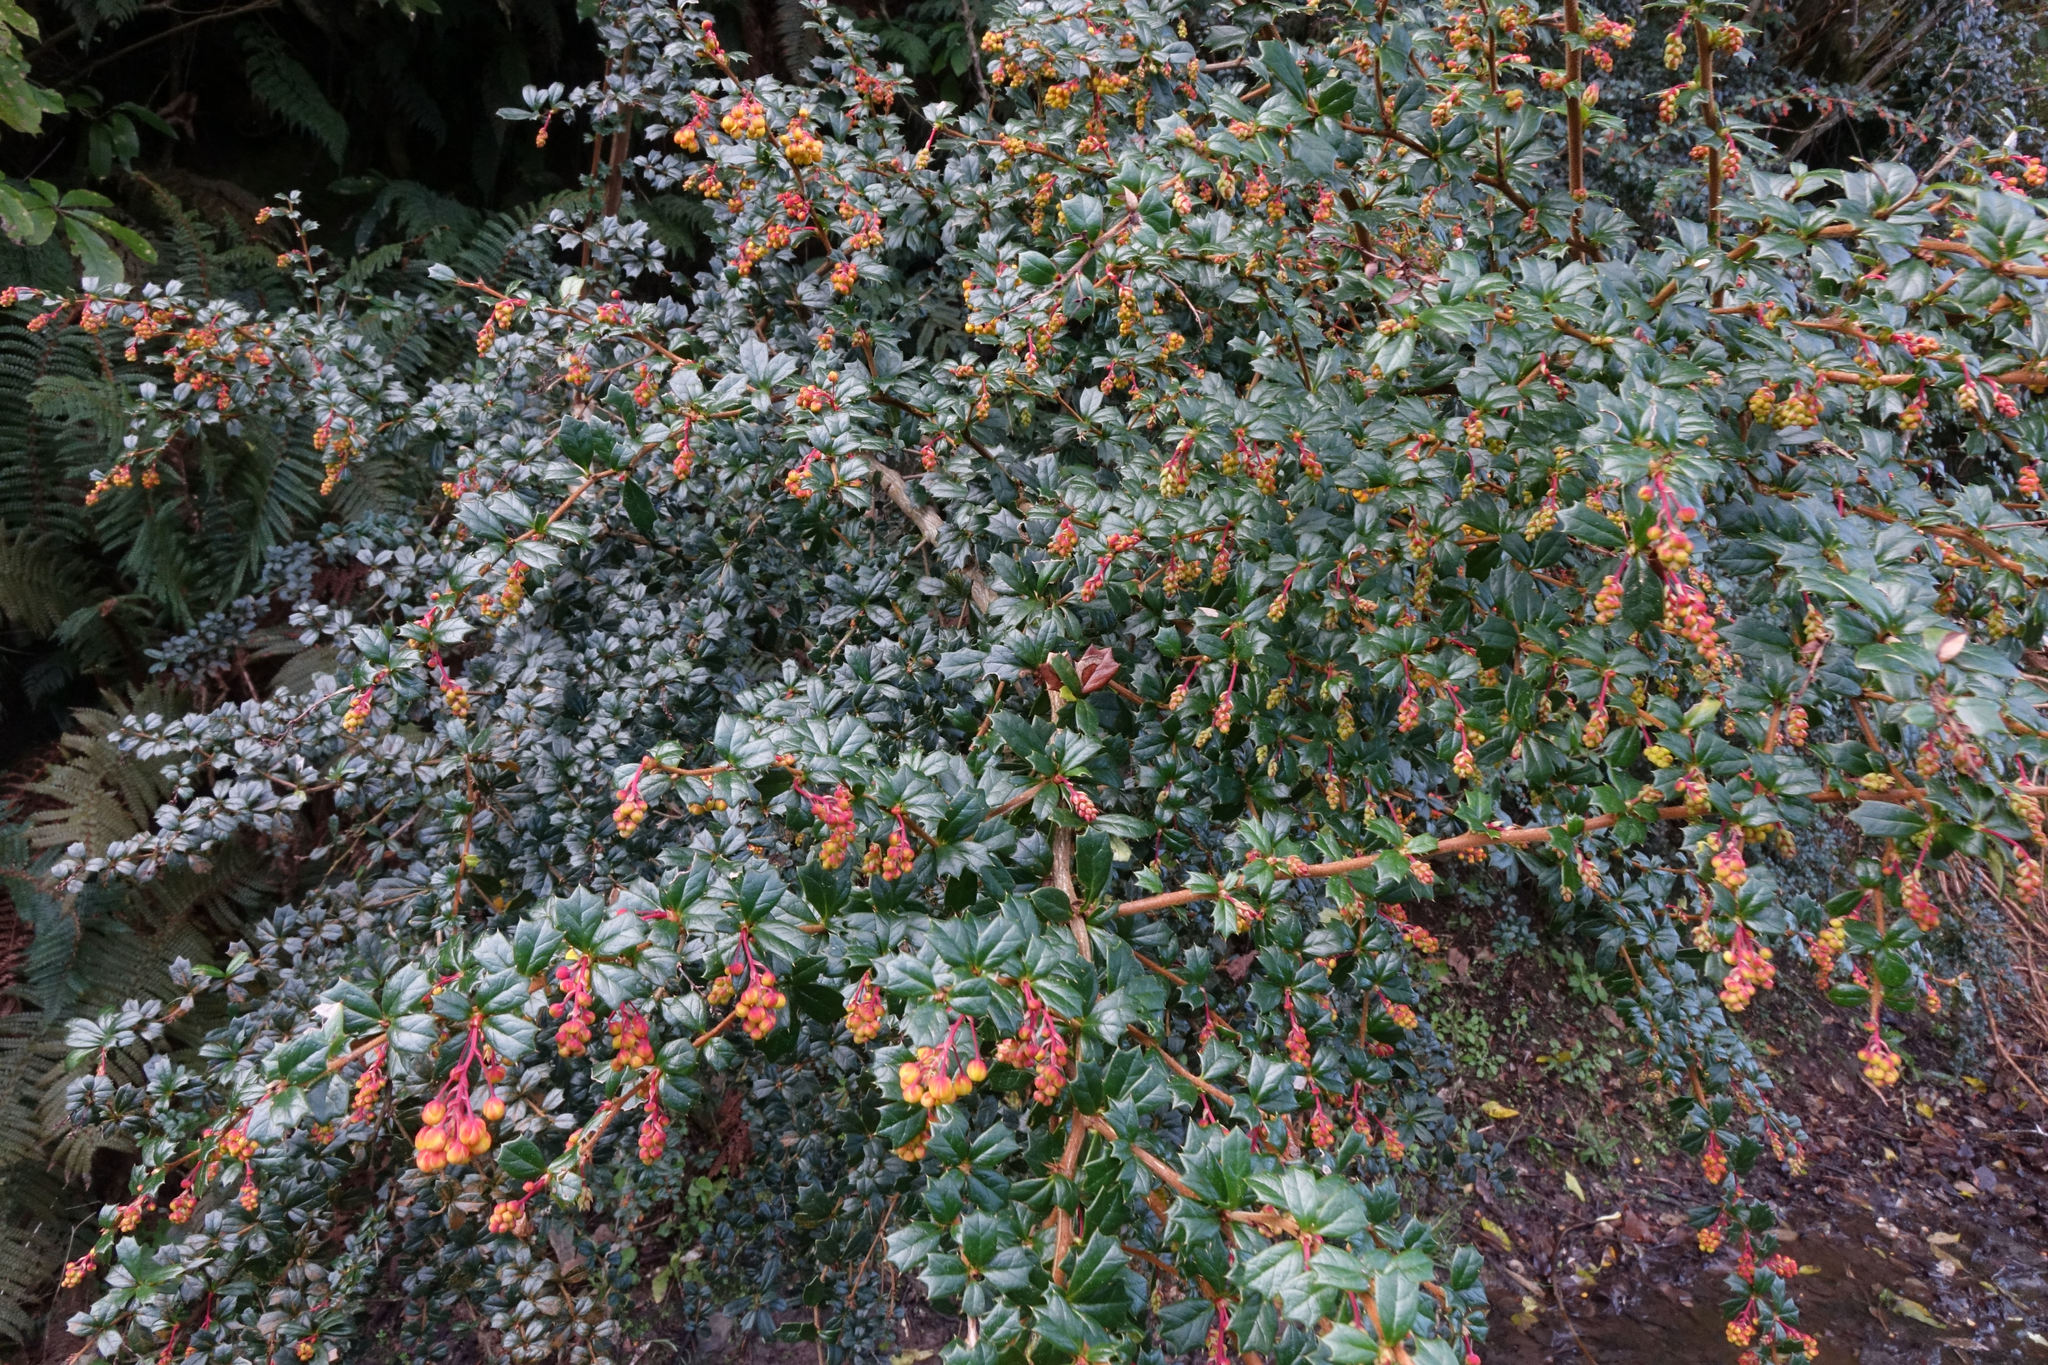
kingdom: Plantae
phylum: Tracheophyta
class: Magnoliopsida
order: Ranunculales
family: Berberidaceae
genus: Berberis
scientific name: Berberis darwinii
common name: Darwin's barberry
